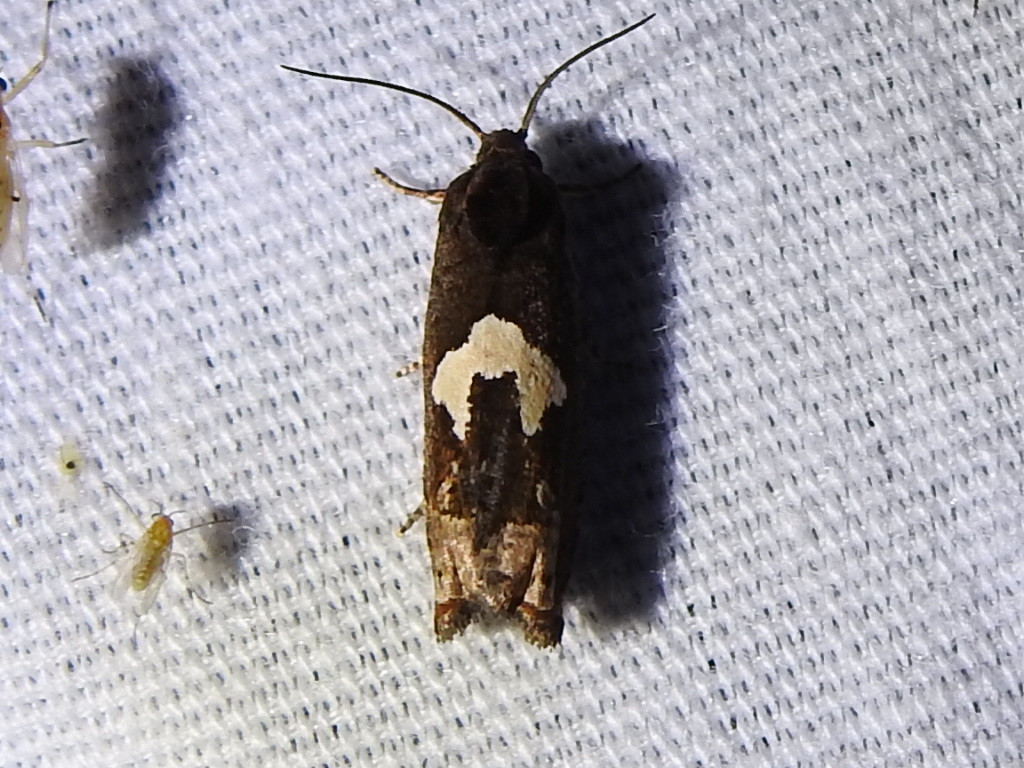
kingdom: Animalia
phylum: Arthropoda
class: Insecta
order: Lepidoptera
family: Tortricidae
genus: Epiblema
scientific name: Epiblema otiosana
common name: Bidens borer moth
